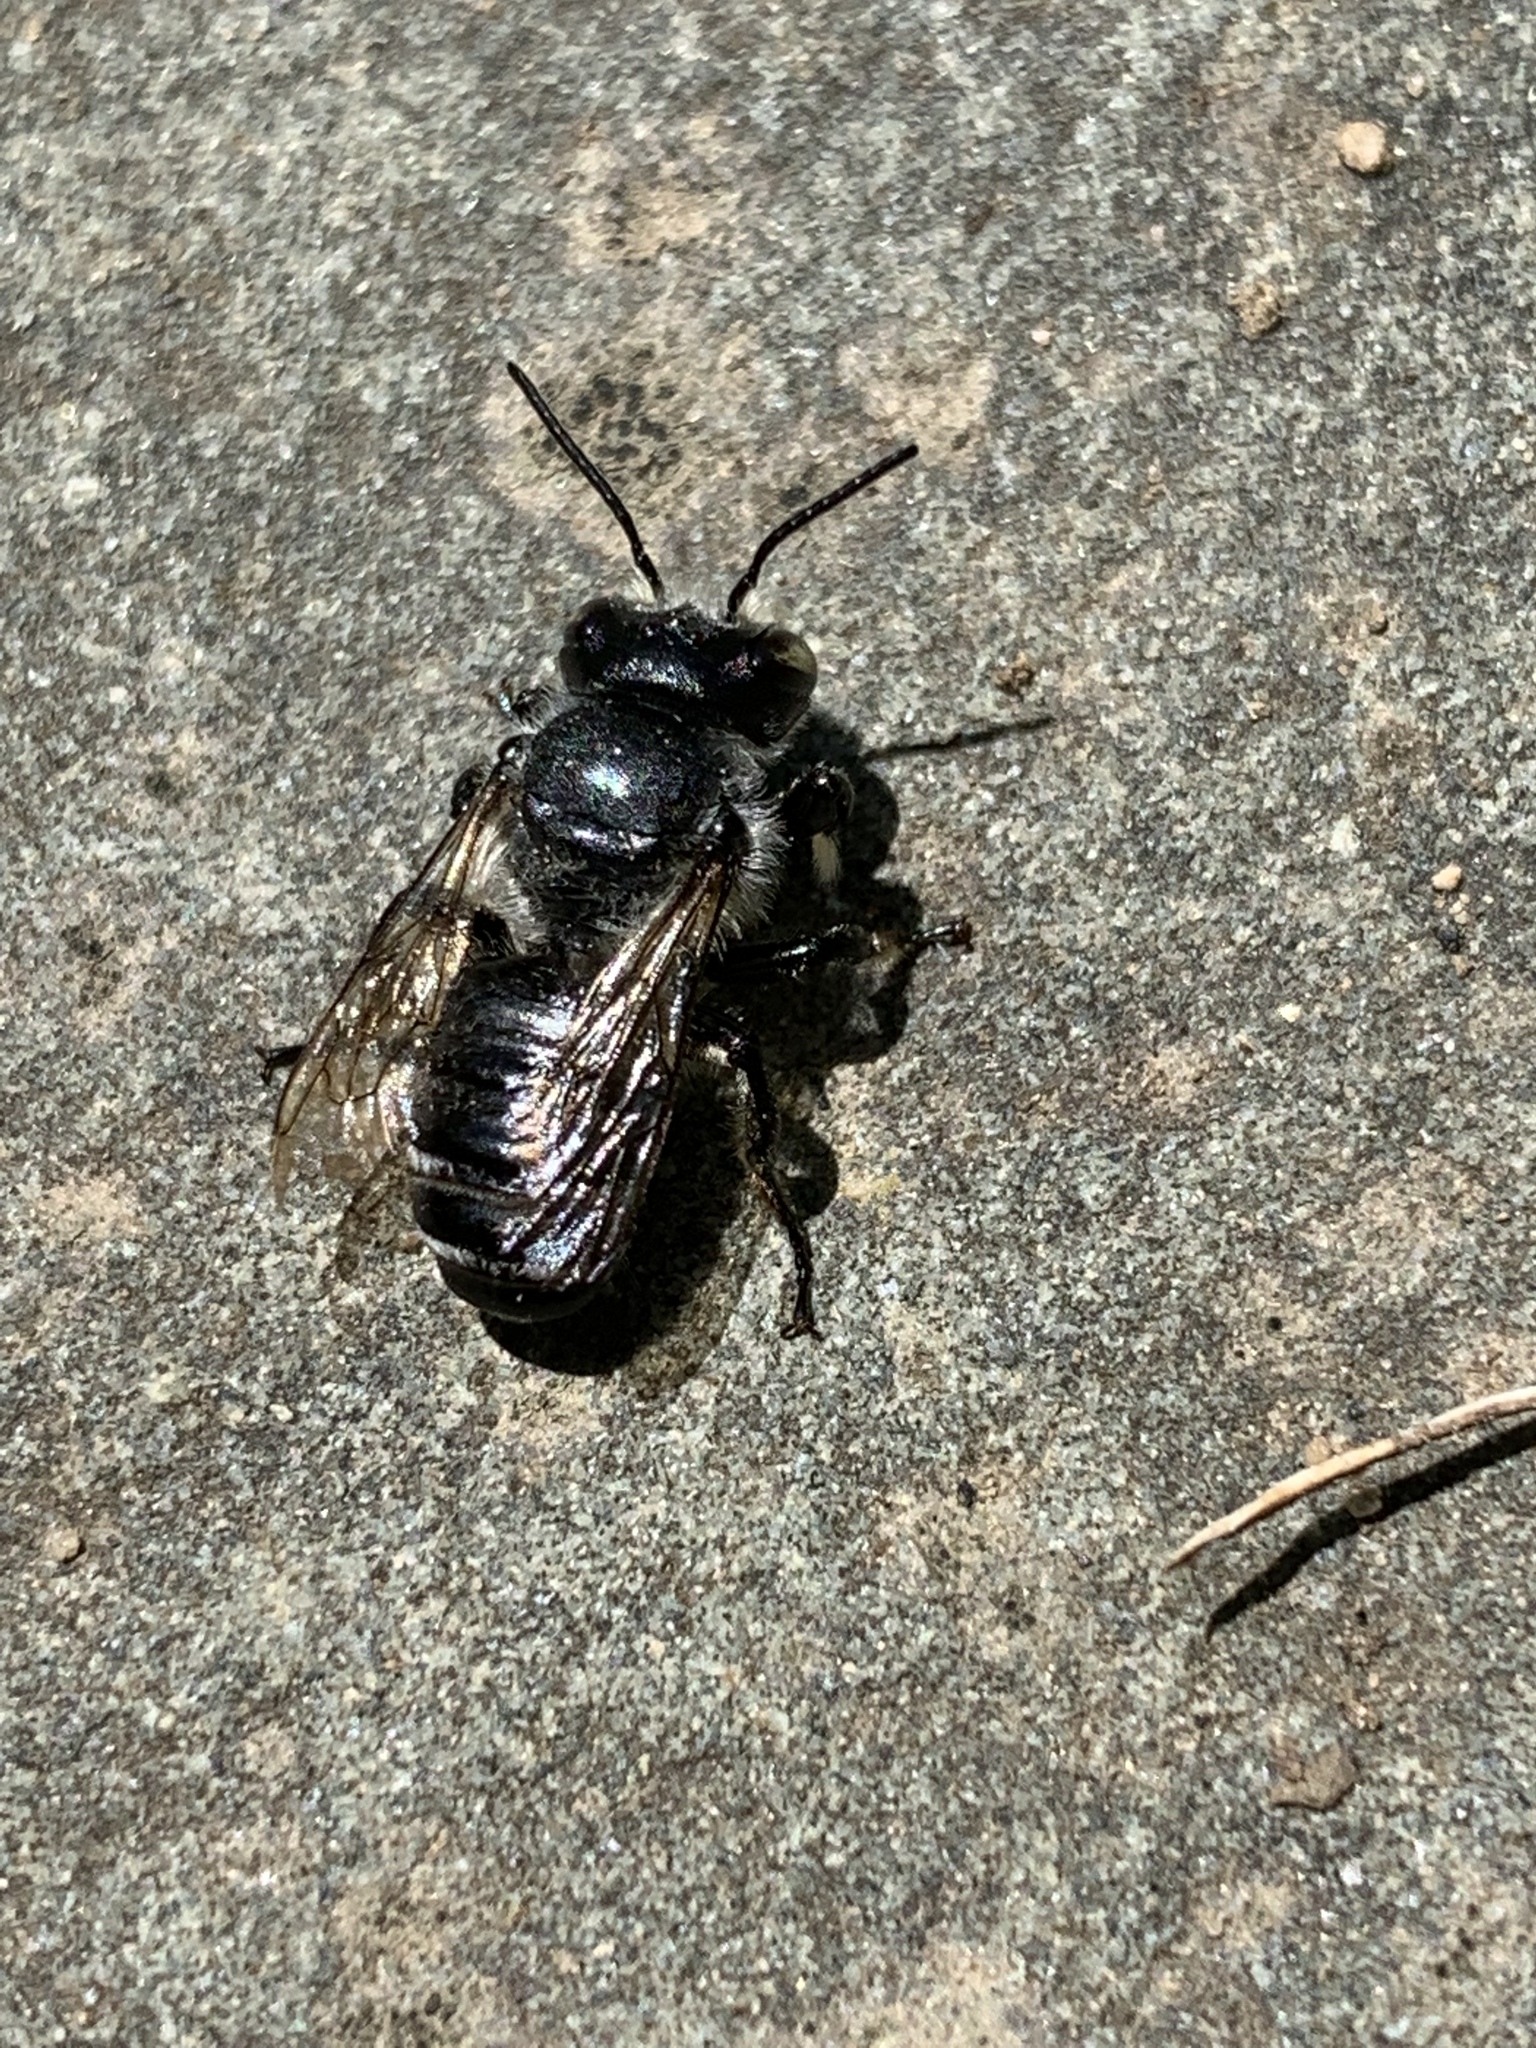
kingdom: Animalia
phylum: Arthropoda
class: Insecta
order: Hymenoptera
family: Megachilidae
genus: Megachile
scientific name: Megachile
